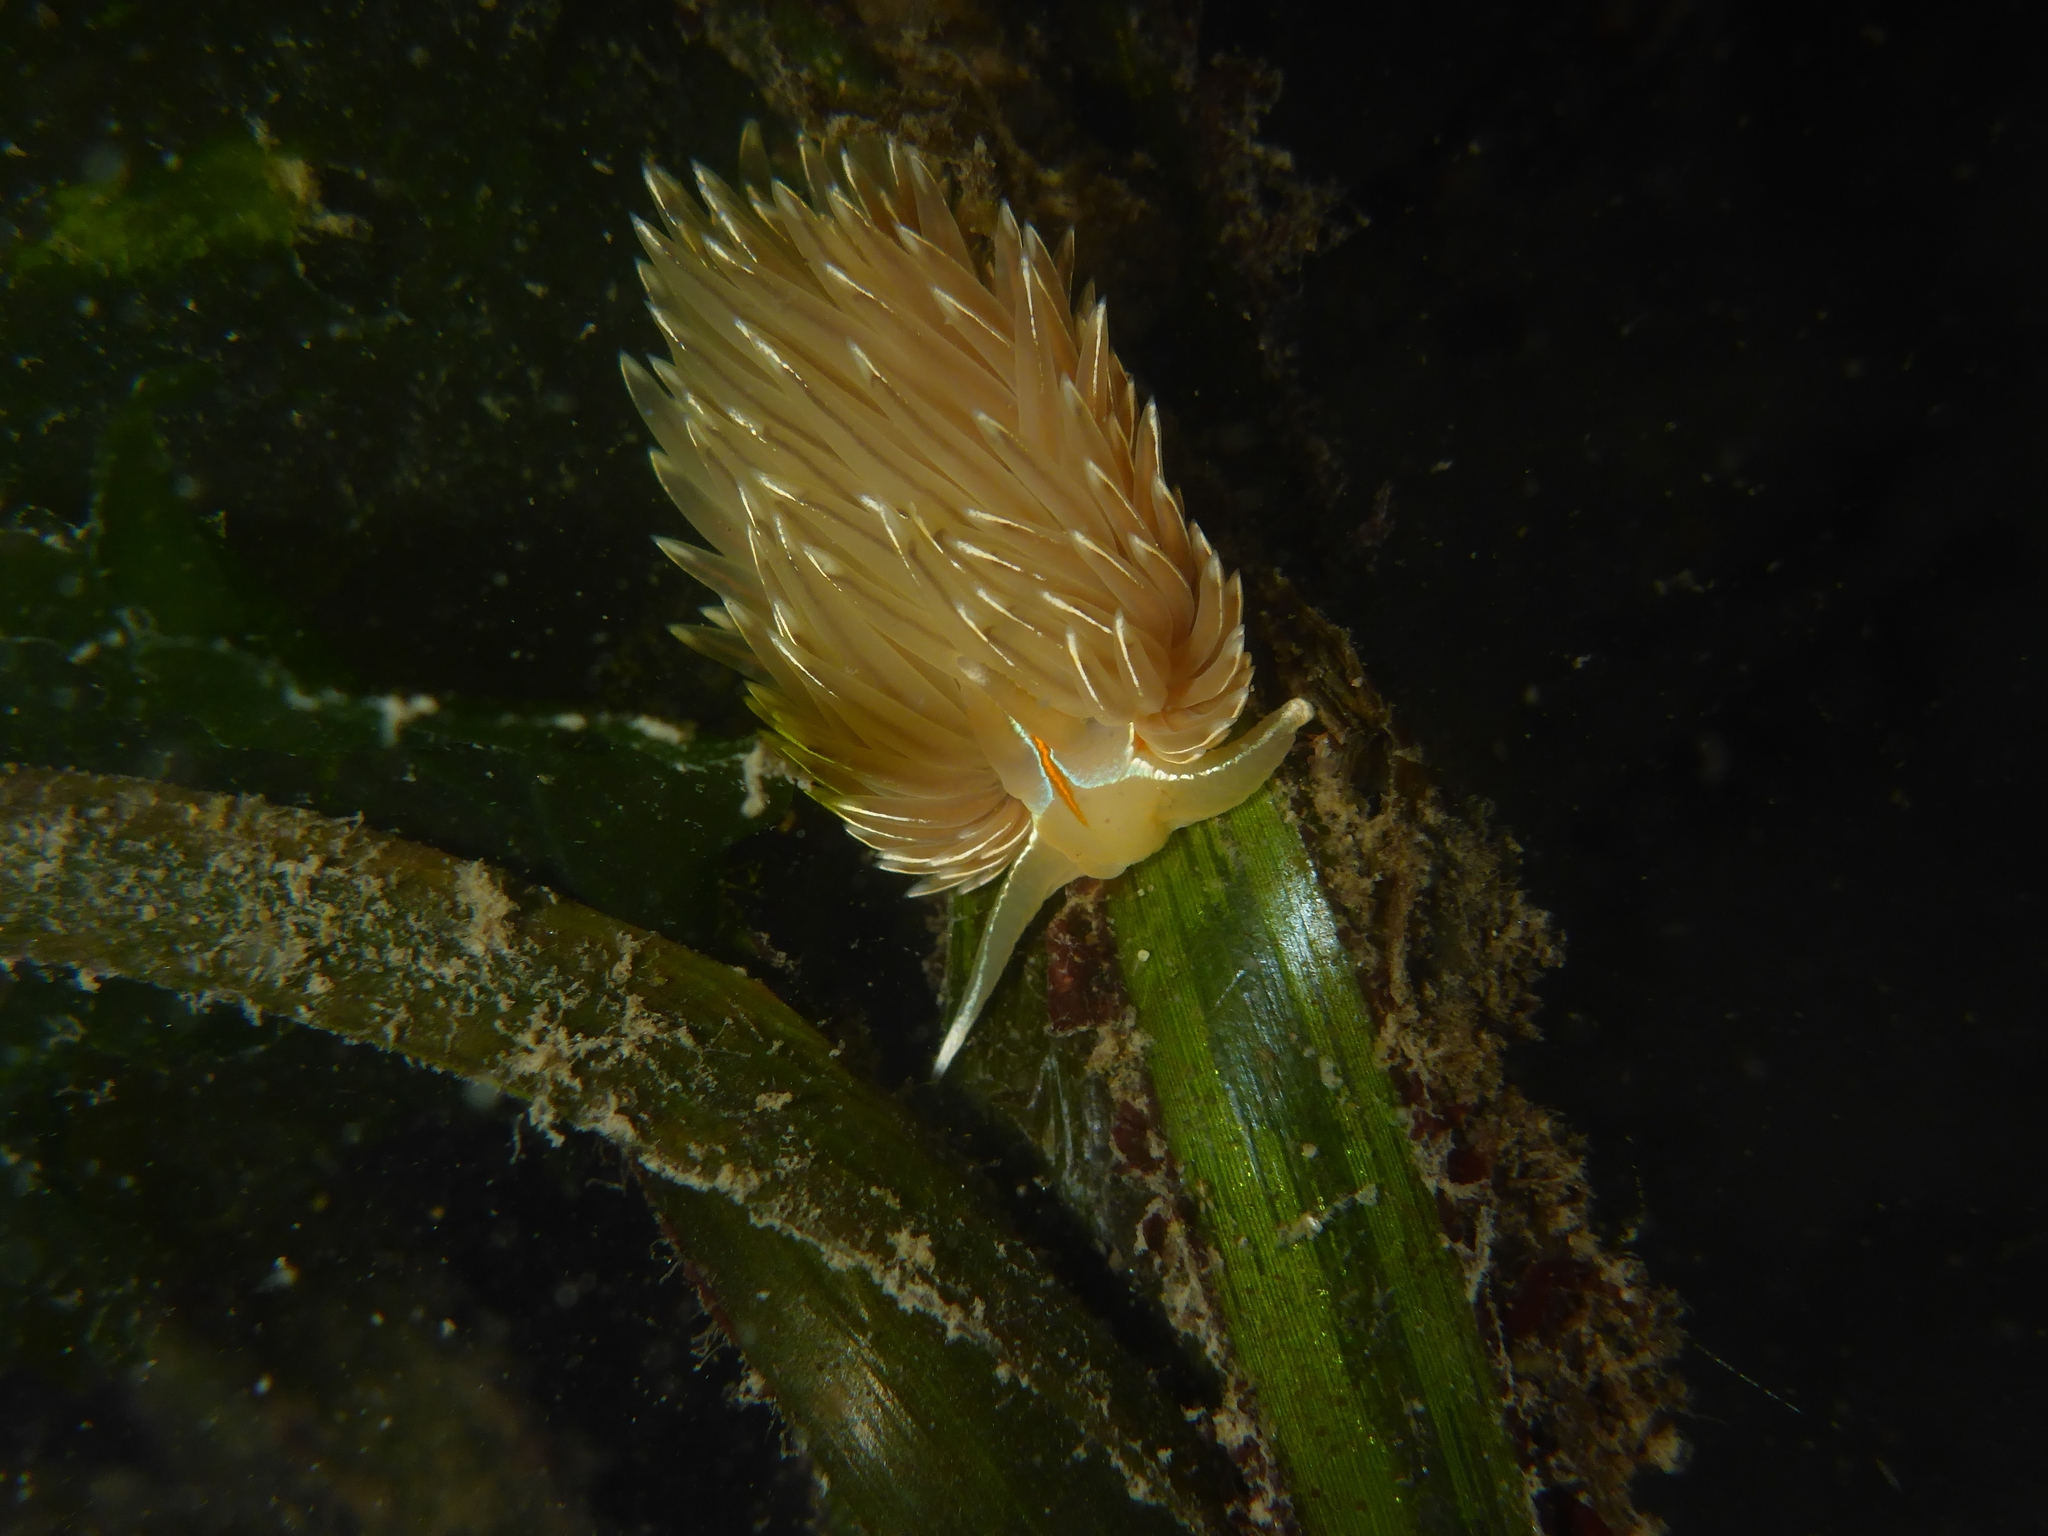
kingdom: Animalia
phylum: Mollusca
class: Gastropoda
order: Nudibranchia
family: Myrrhinidae
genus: Hermissenda
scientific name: Hermissenda crassicornis
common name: Hermissenda
